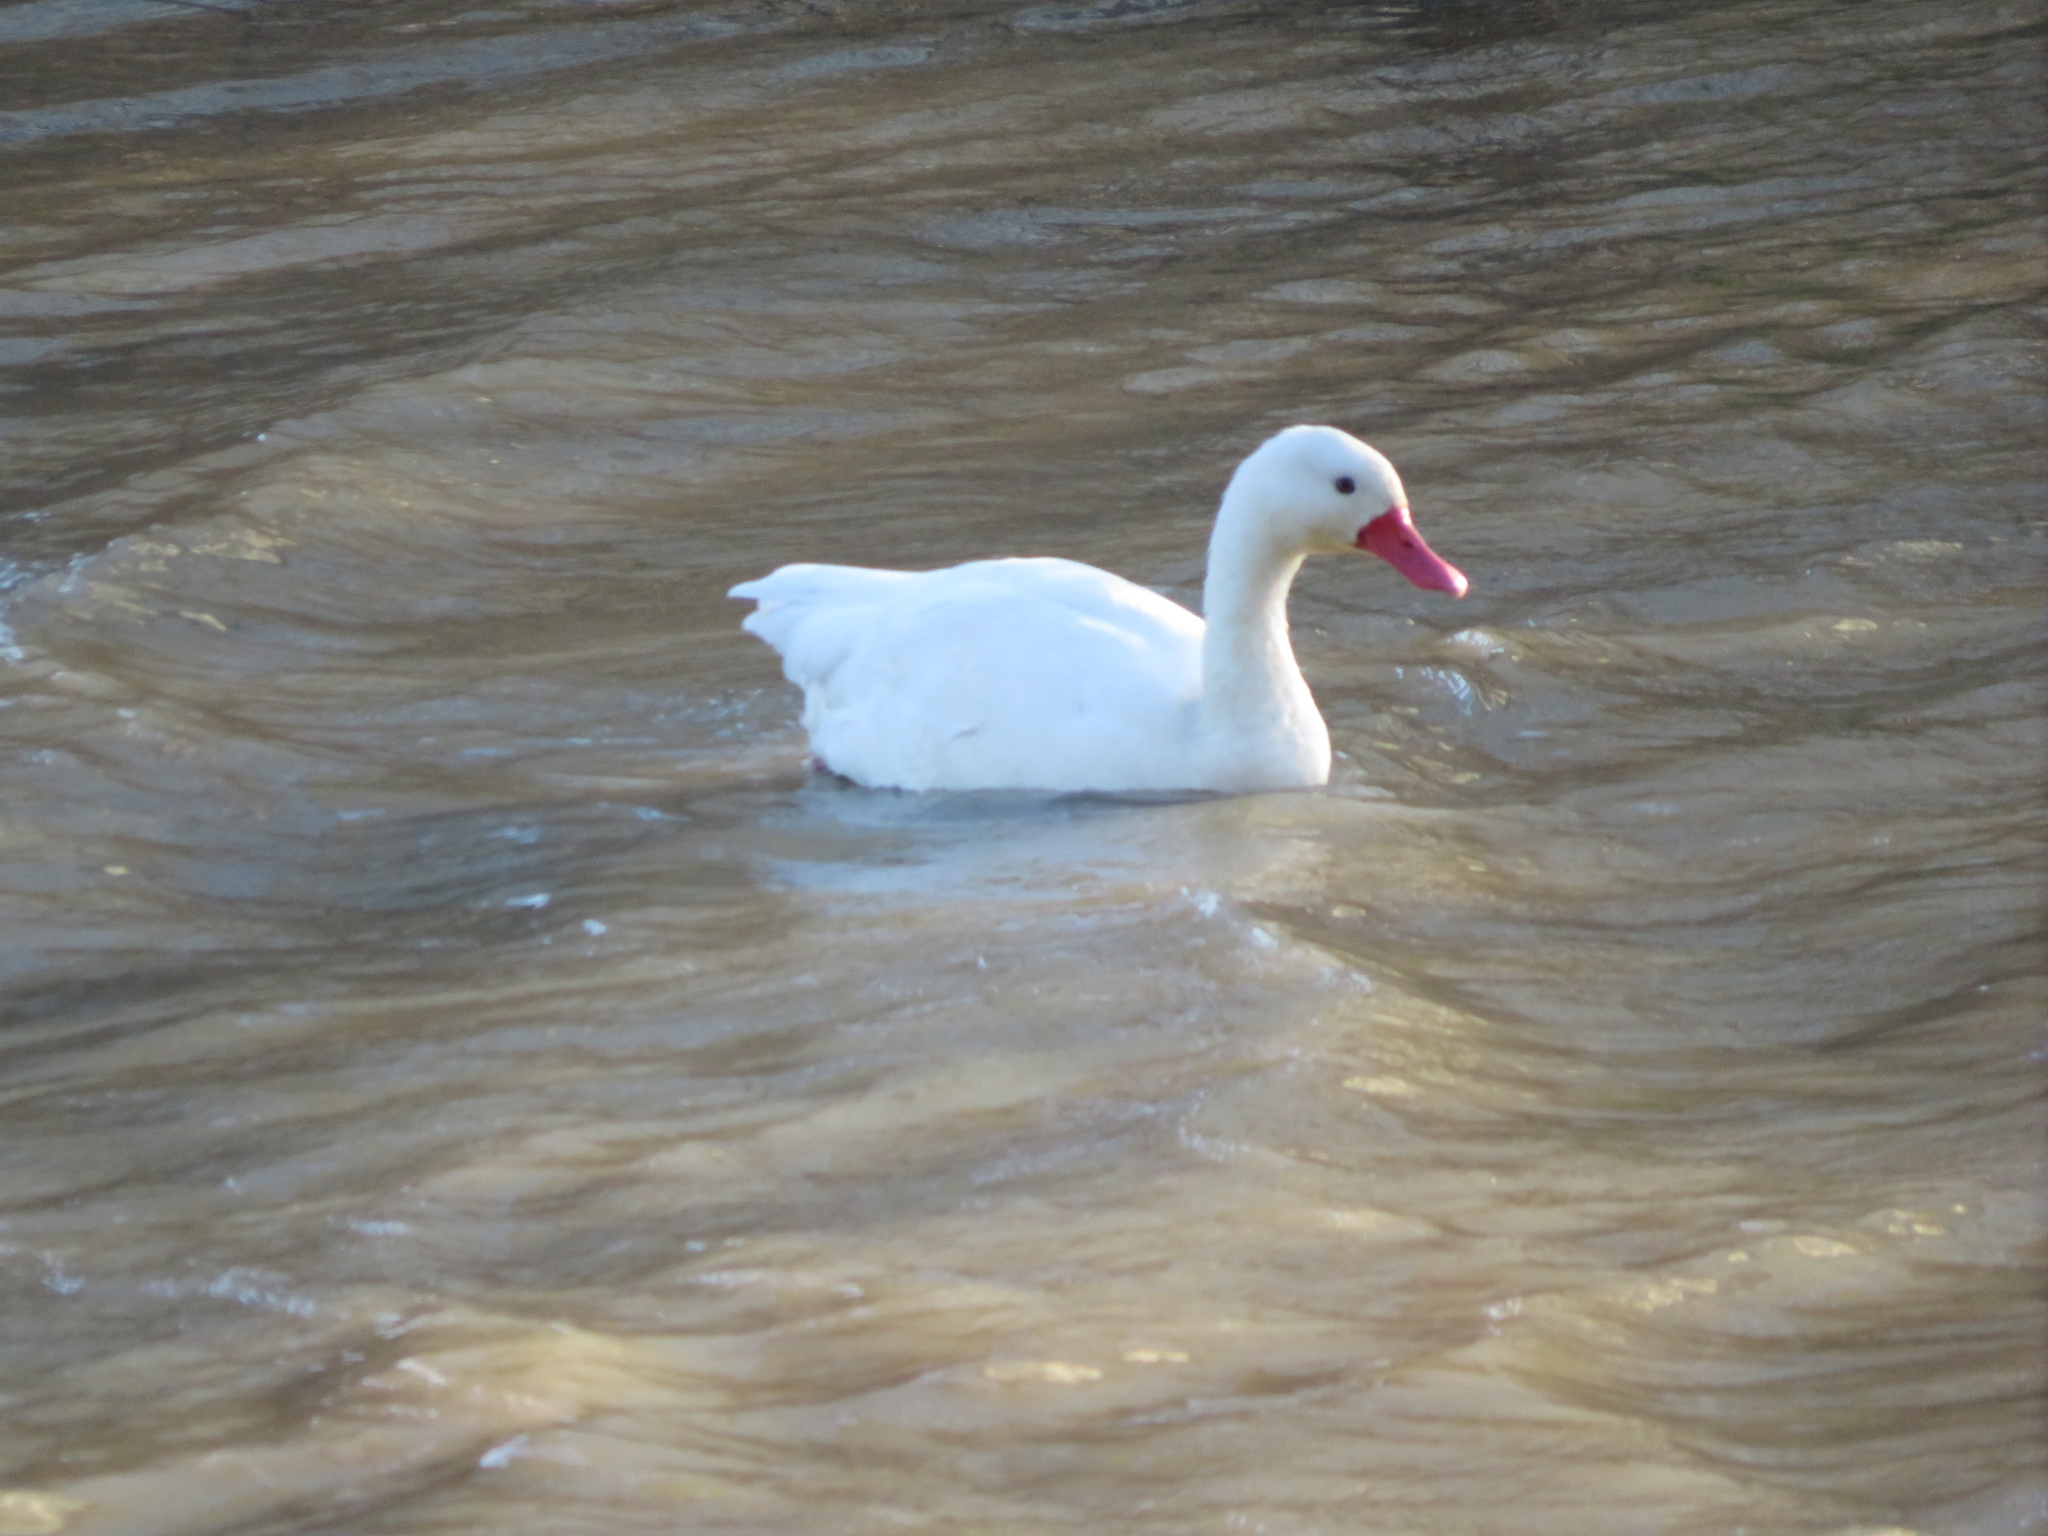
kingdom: Animalia
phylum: Chordata
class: Aves
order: Anseriformes
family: Anatidae
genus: Coscoroba
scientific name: Coscoroba coscoroba
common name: Coscoroba swan
